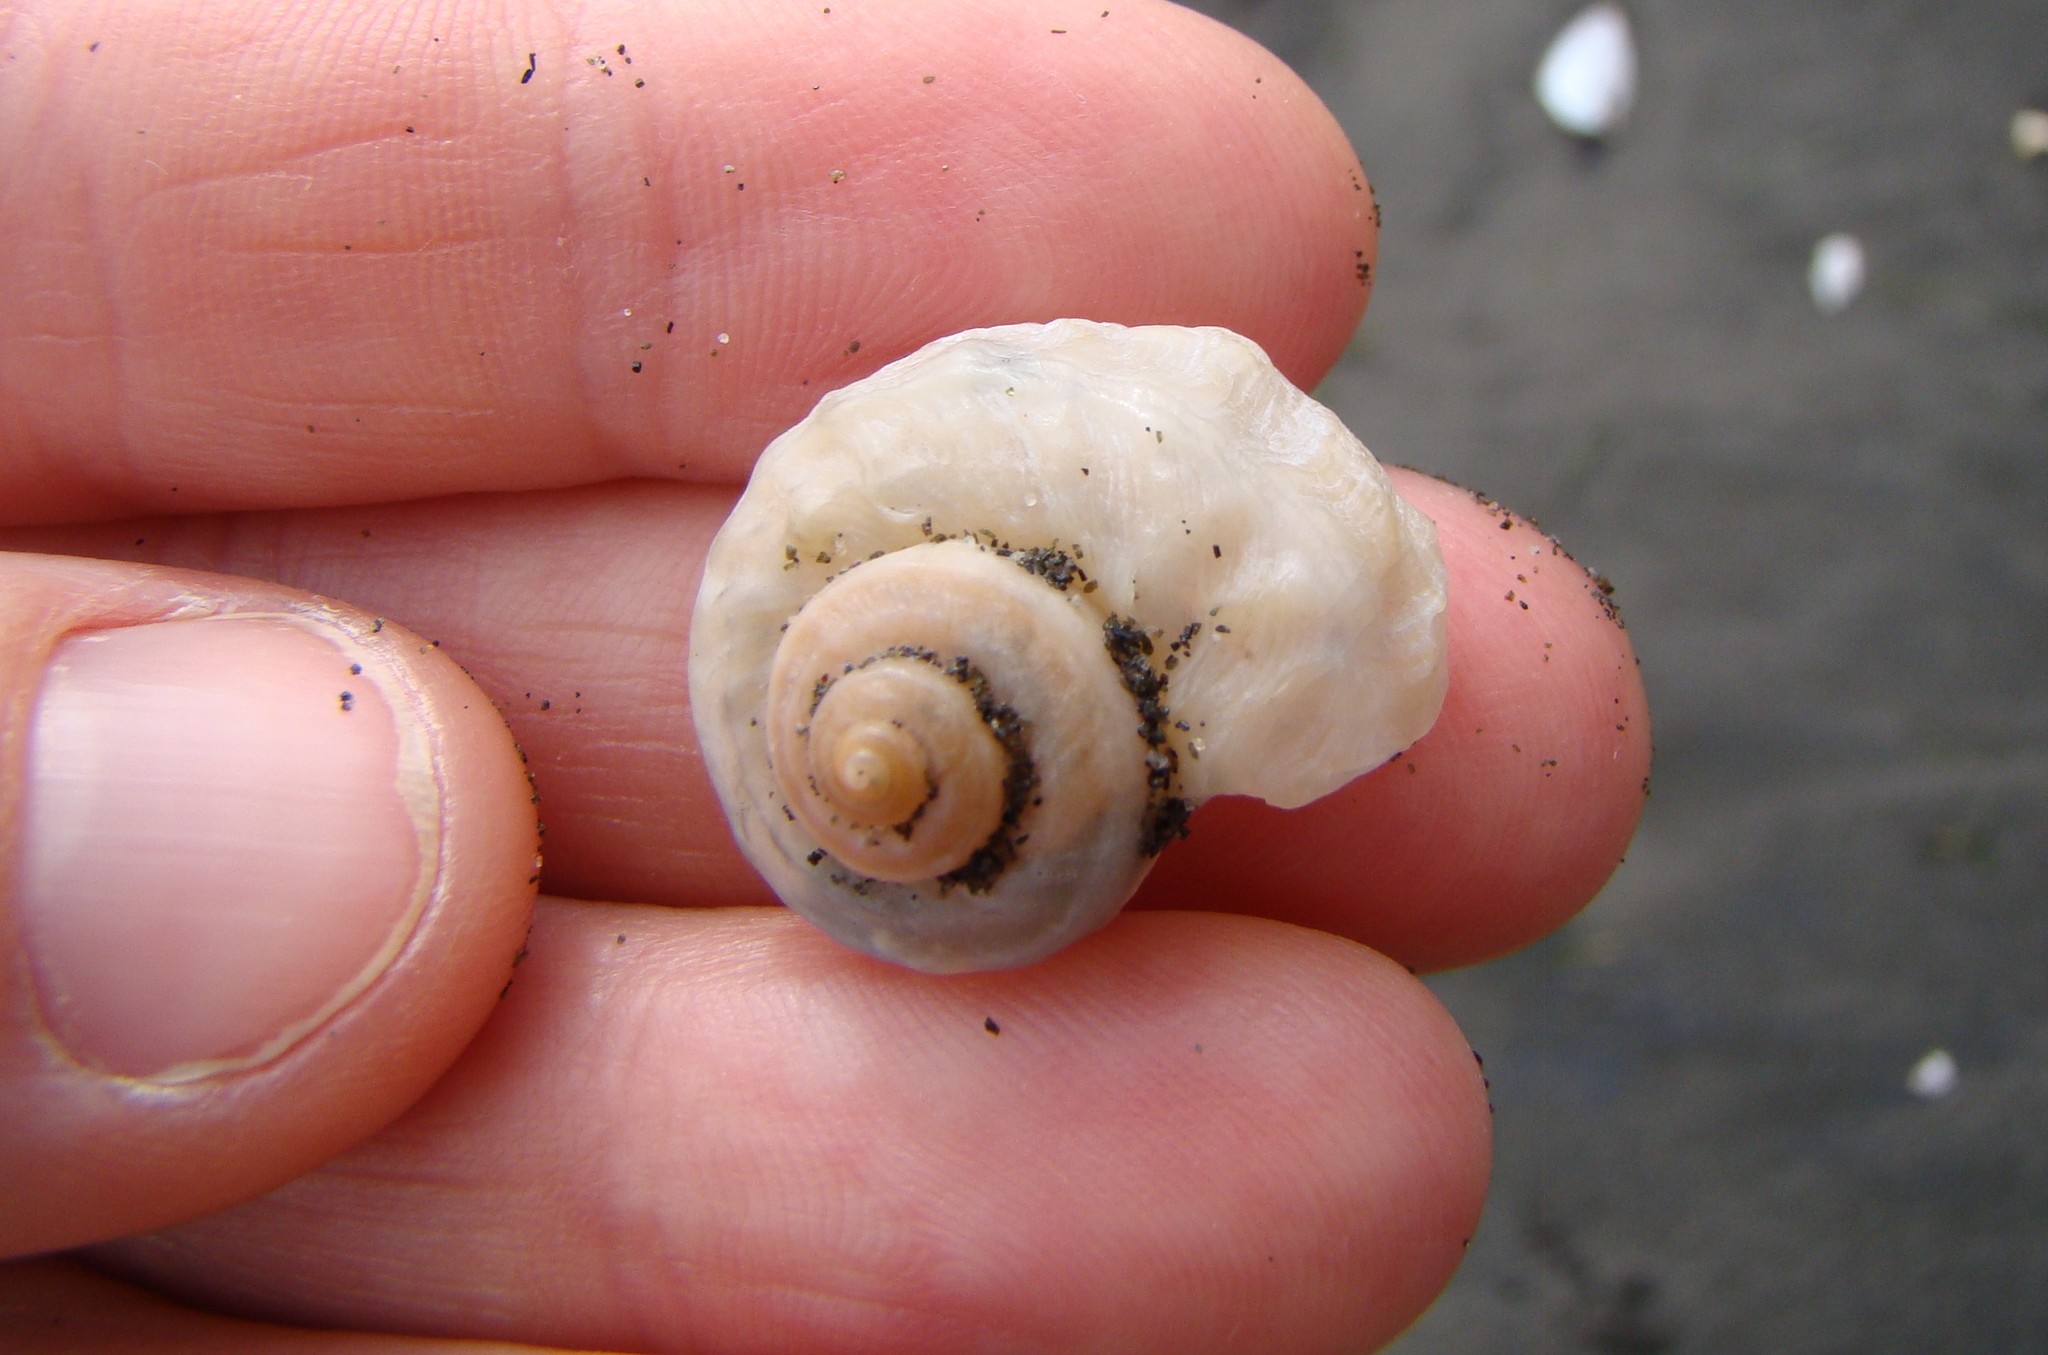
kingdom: Animalia
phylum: Mollusca
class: Gastropoda
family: Amphibolidae
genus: Amphibola
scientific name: Amphibola crenata
